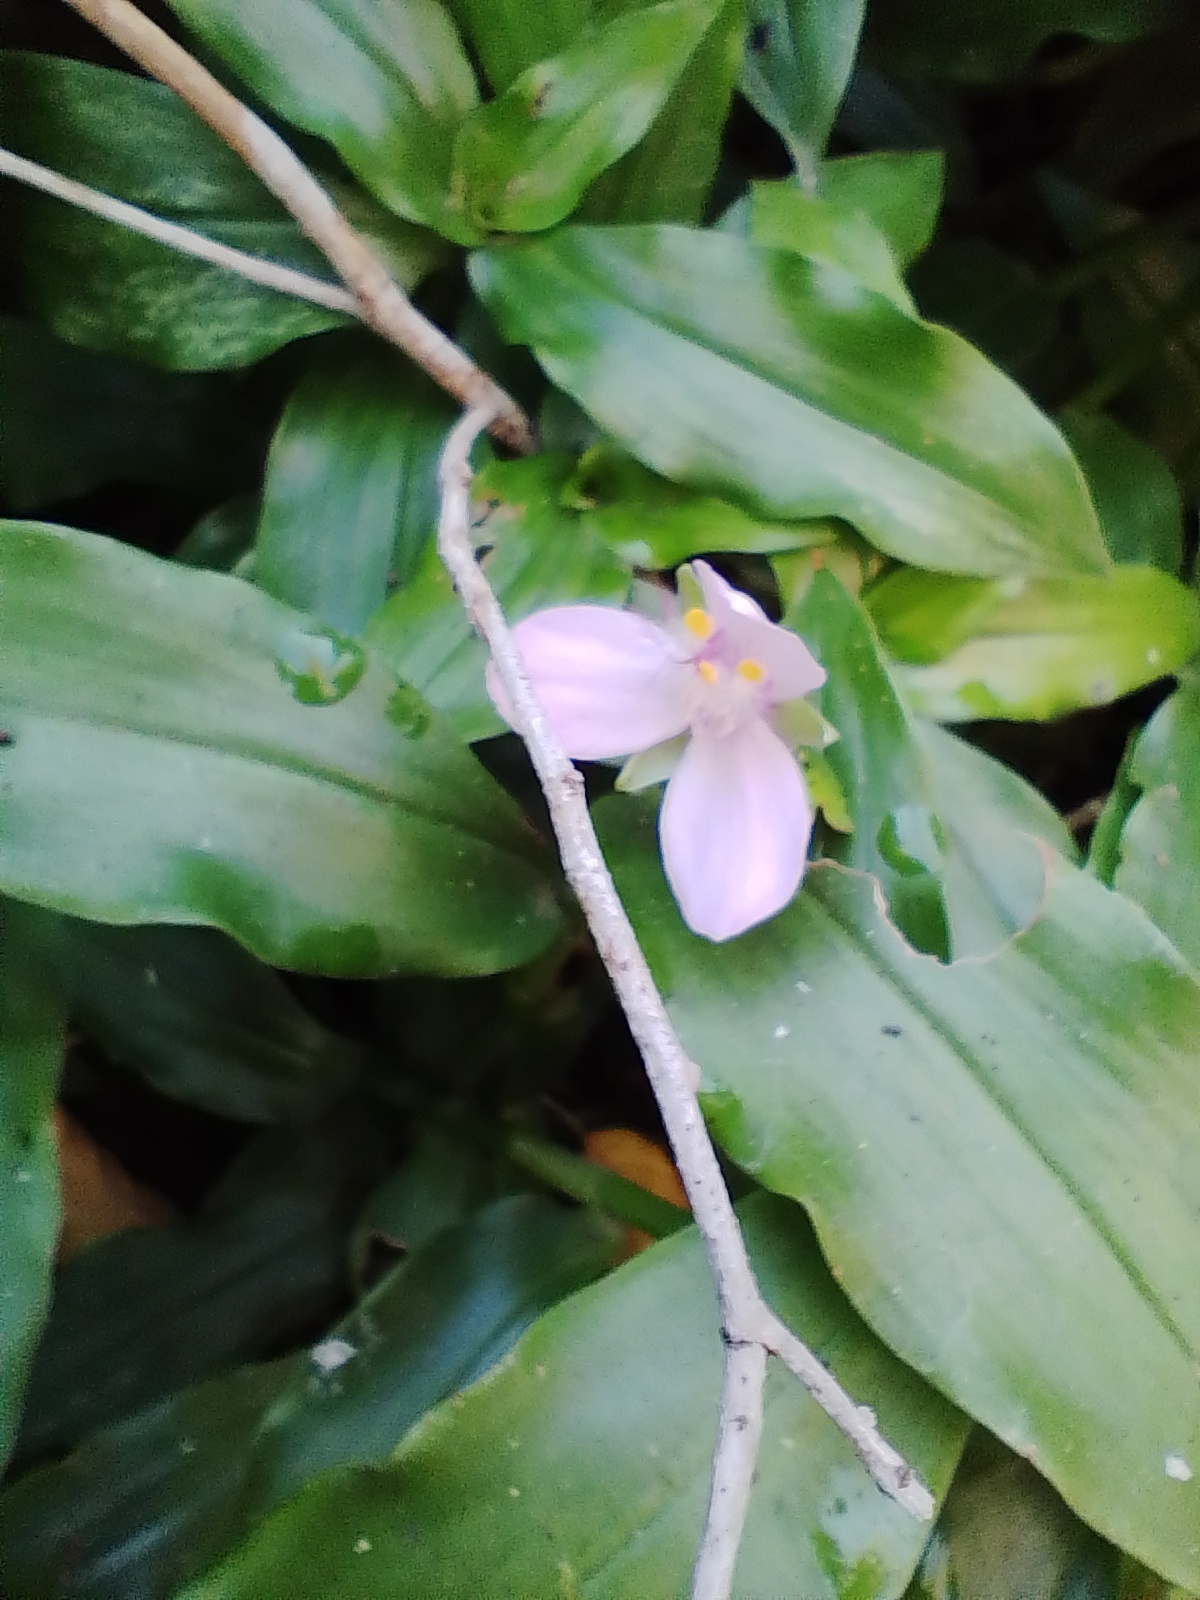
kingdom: Plantae
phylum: Tracheophyta
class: Liliopsida
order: Commelinales
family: Commelinaceae
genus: Callisia
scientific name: Callisia diuretica
